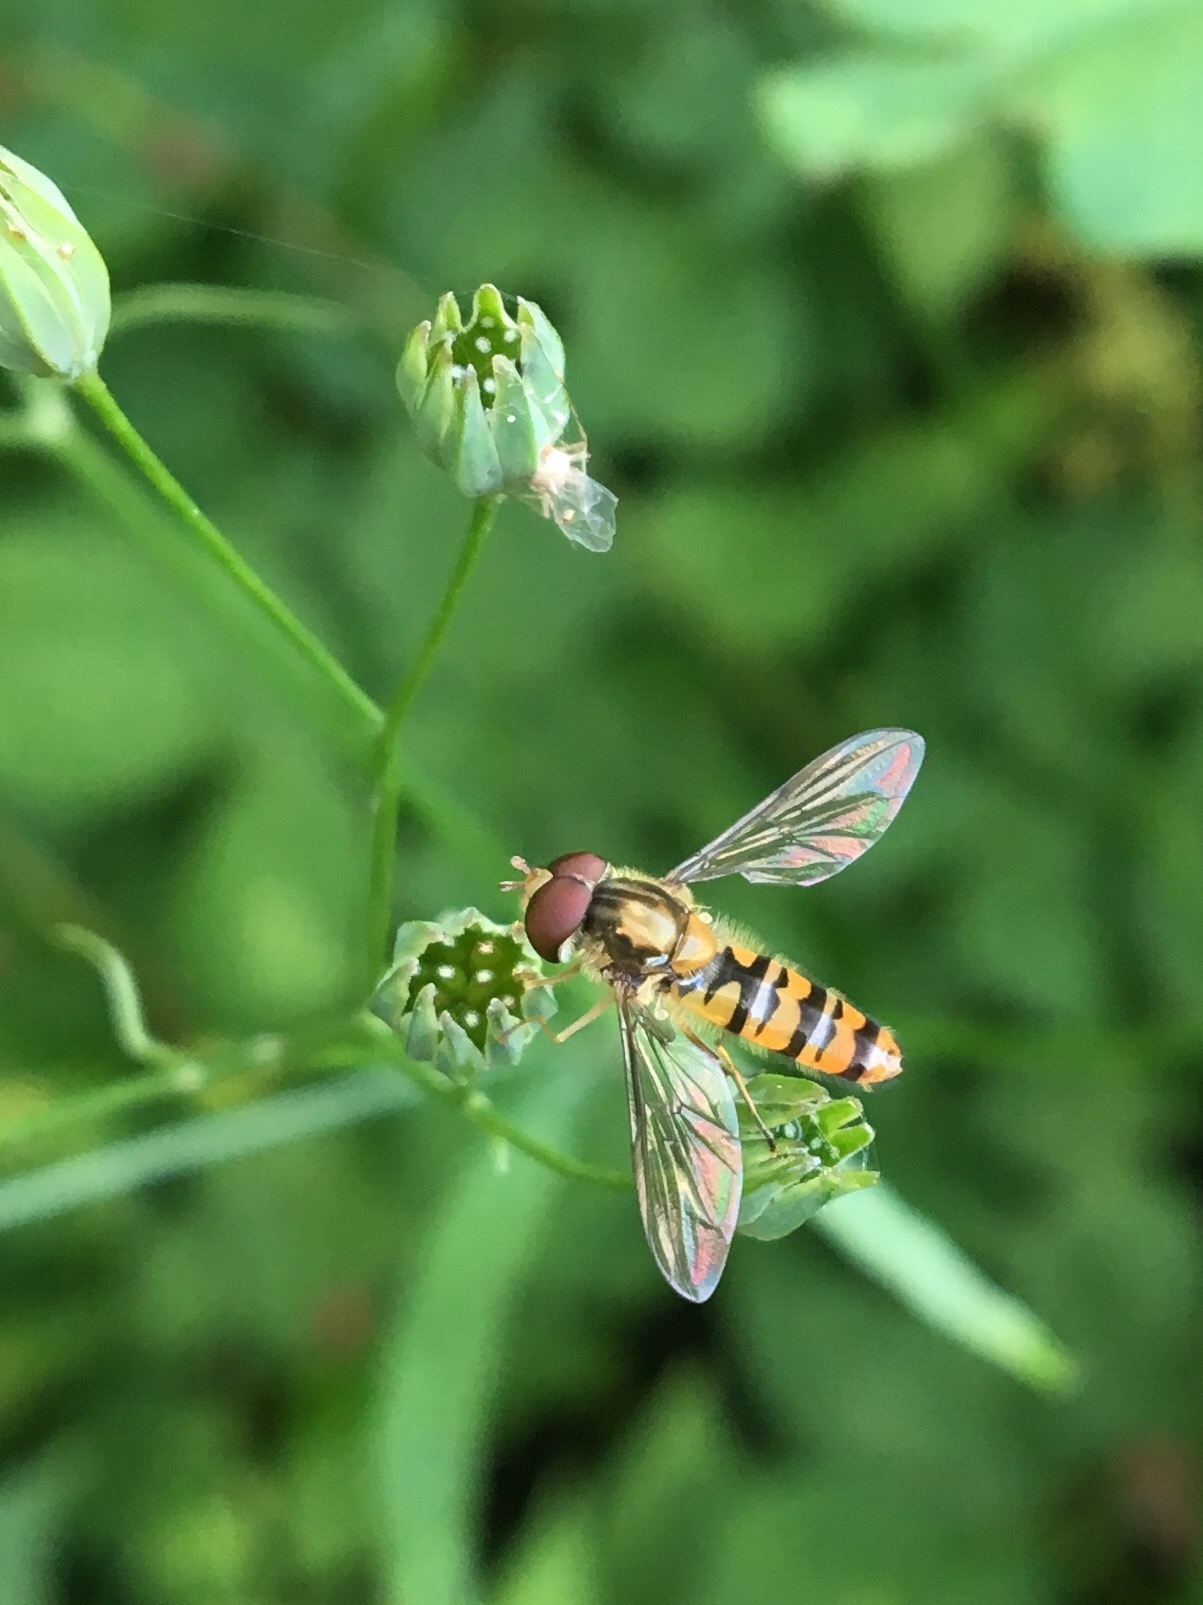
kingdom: Animalia
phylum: Arthropoda
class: Insecta
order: Diptera
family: Syrphidae
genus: Episyrphus
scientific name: Episyrphus balteatus
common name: Marmalade hoverfly
